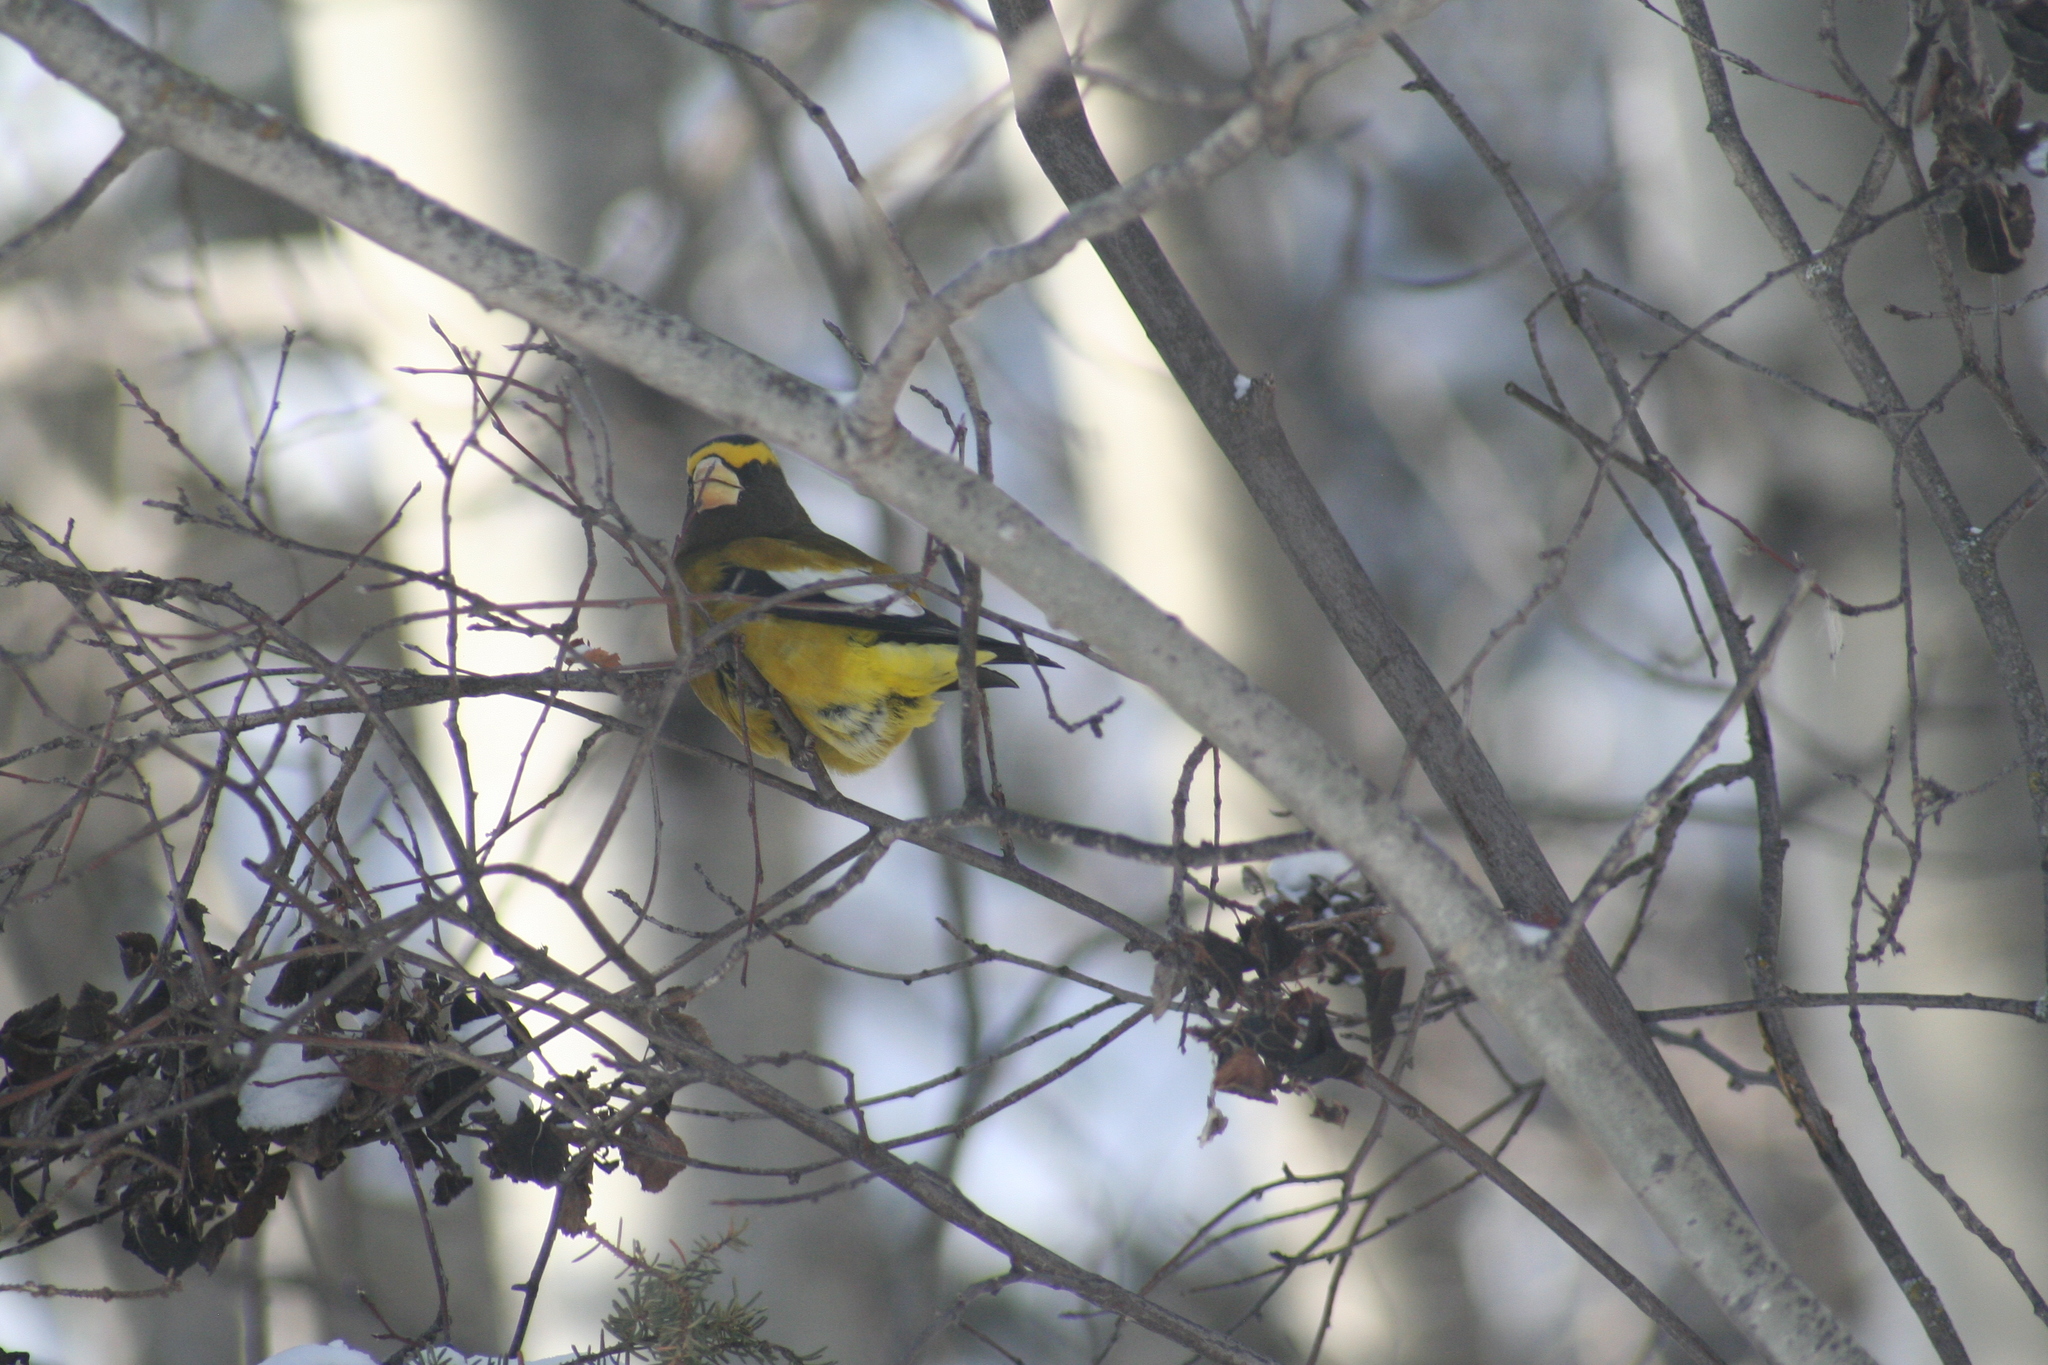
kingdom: Animalia
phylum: Chordata
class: Aves
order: Passeriformes
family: Fringillidae
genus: Hesperiphona
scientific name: Hesperiphona vespertina
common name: Evening grosbeak
